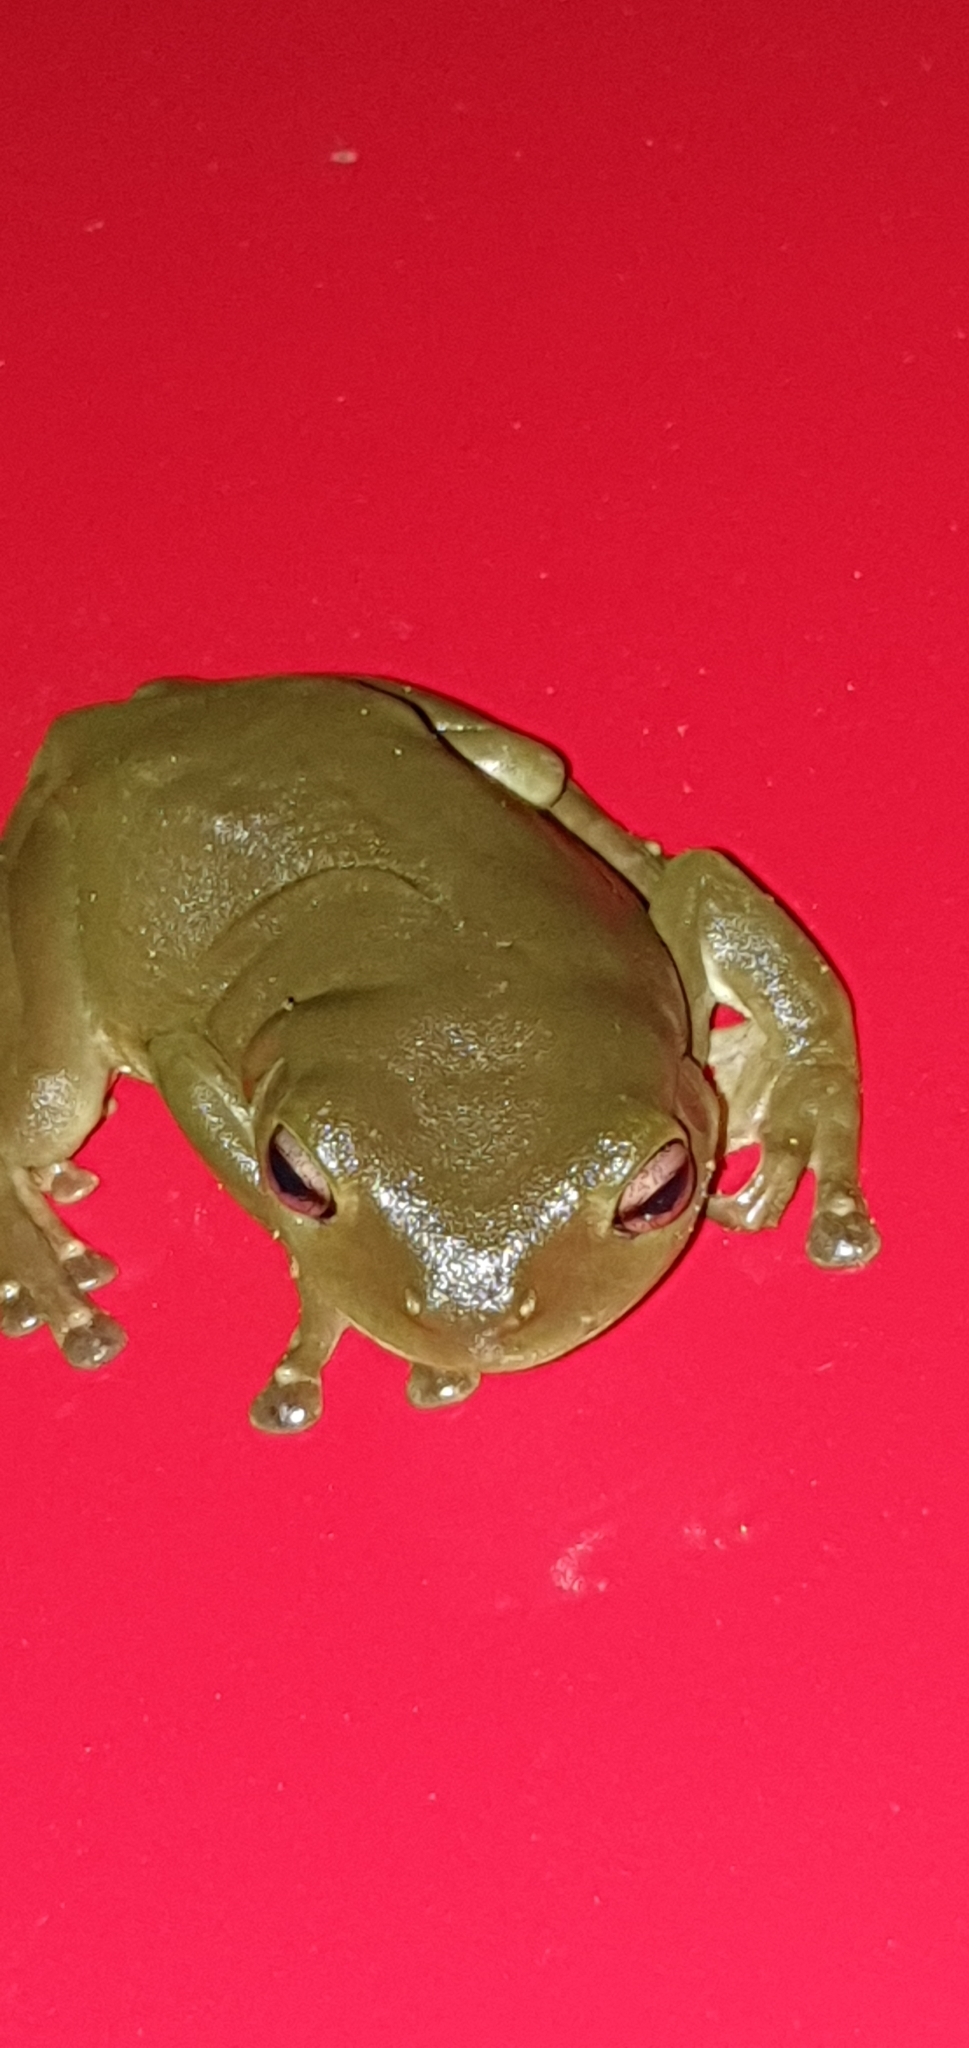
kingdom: Animalia
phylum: Chordata
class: Amphibia
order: Anura
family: Pelodryadidae
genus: Ranoidea
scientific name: Ranoidea caerulea
